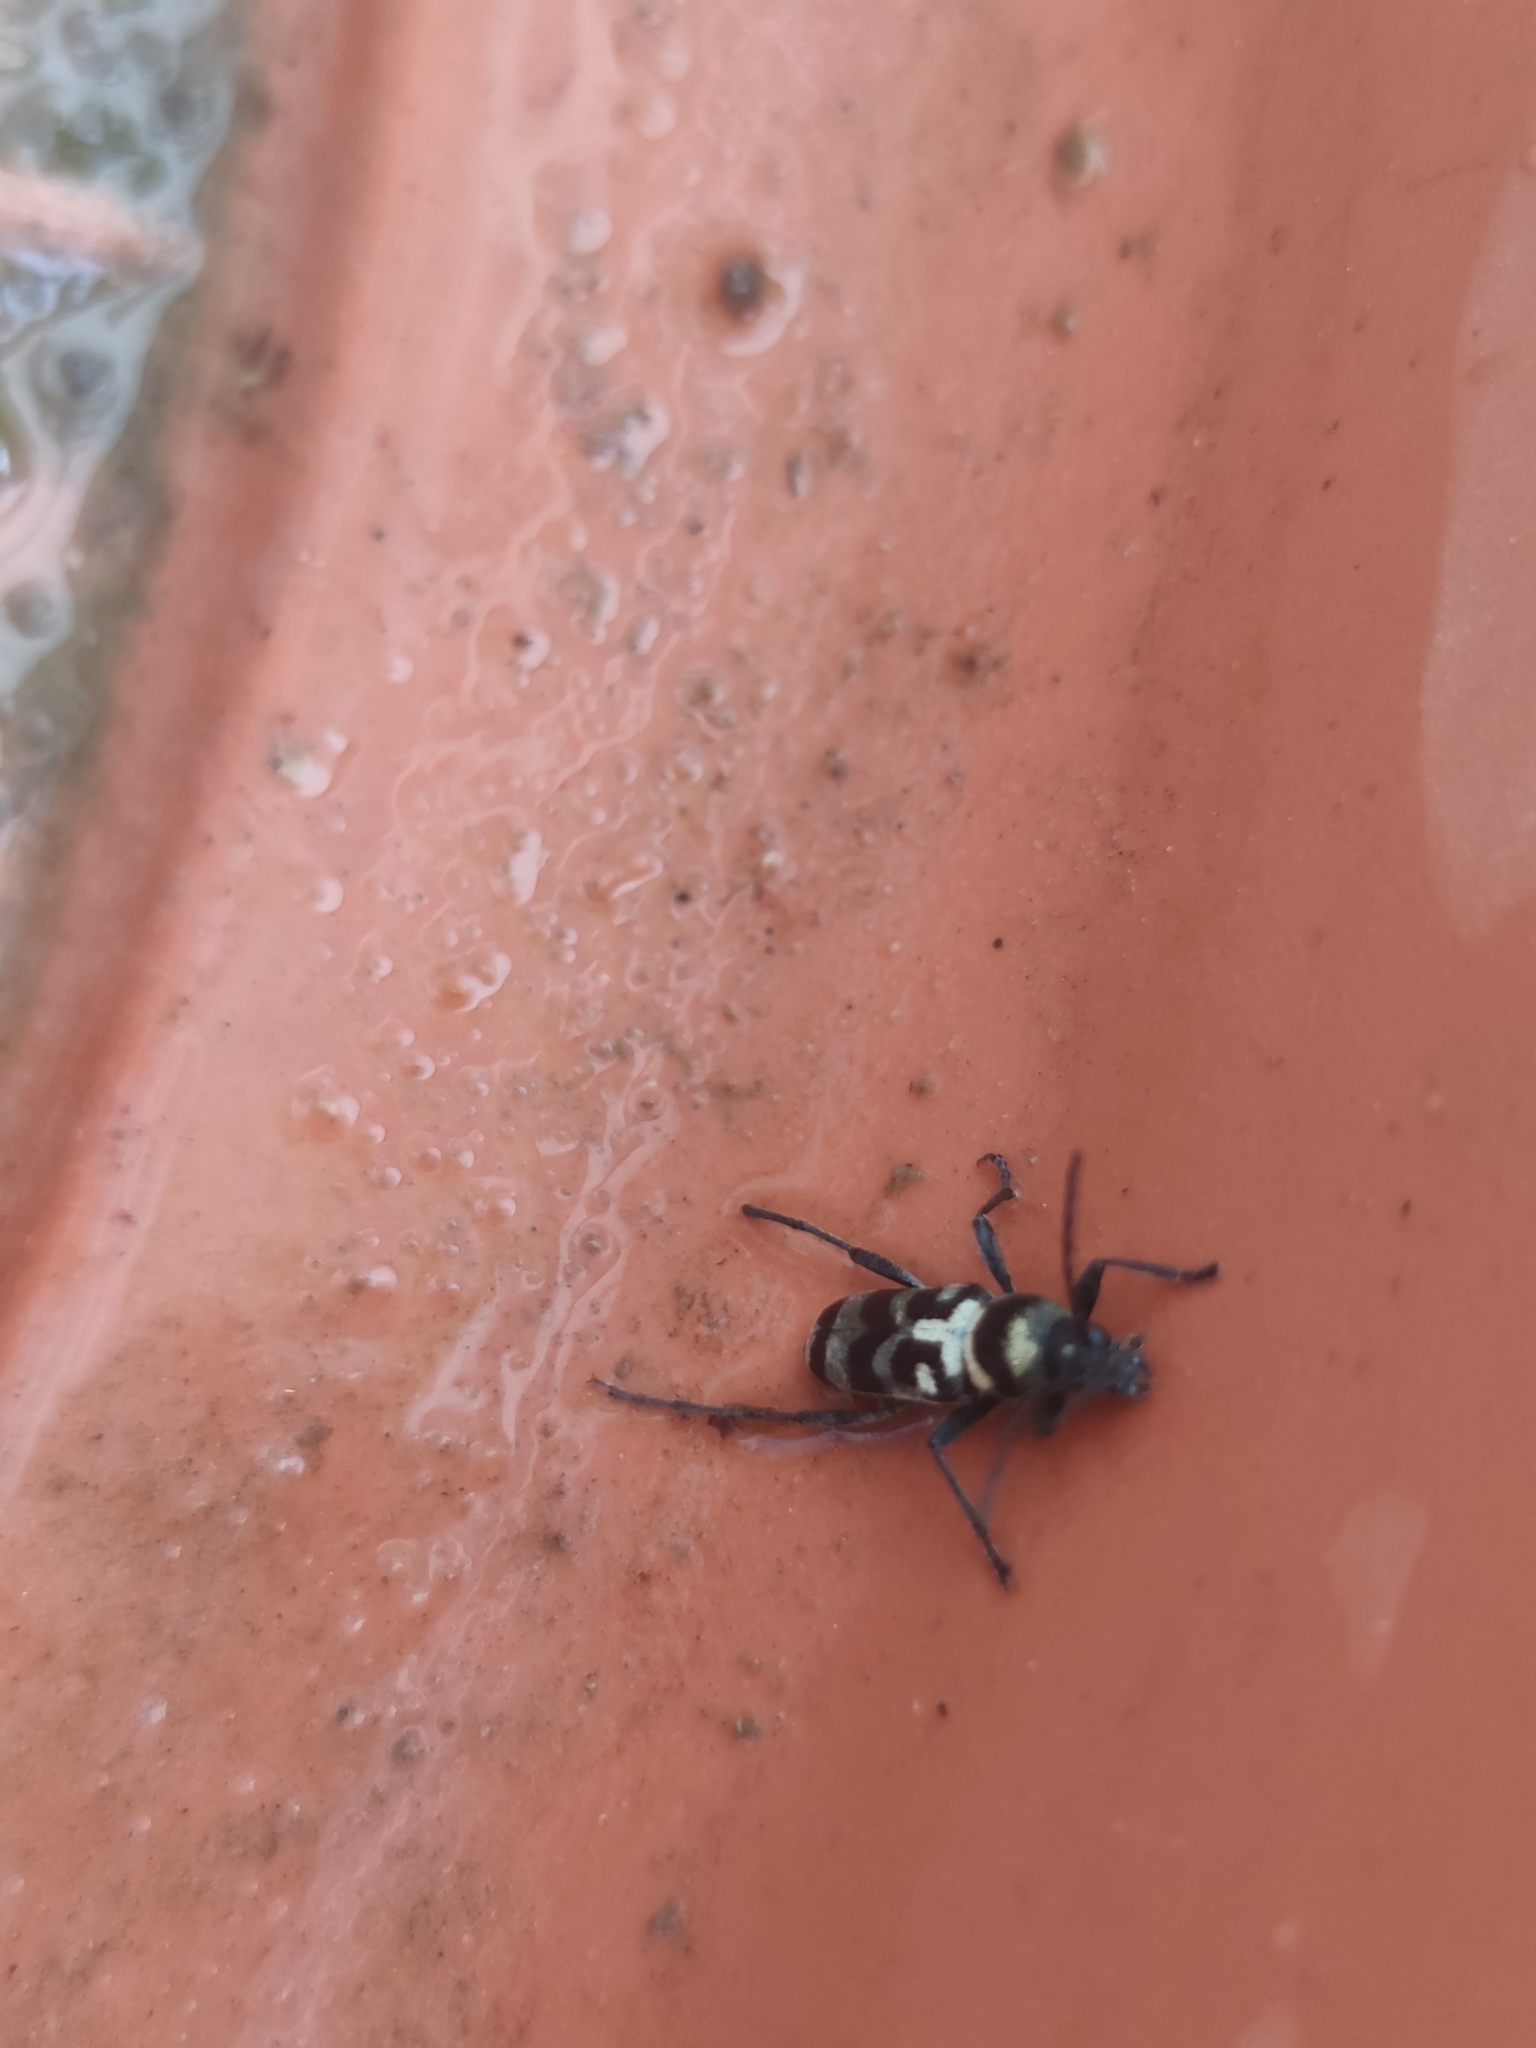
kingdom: Animalia
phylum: Arthropoda
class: Insecta
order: Coleoptera
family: Cerambycidae
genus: Chlorophorus
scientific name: Chlorophorus varius
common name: Grape wood borer
